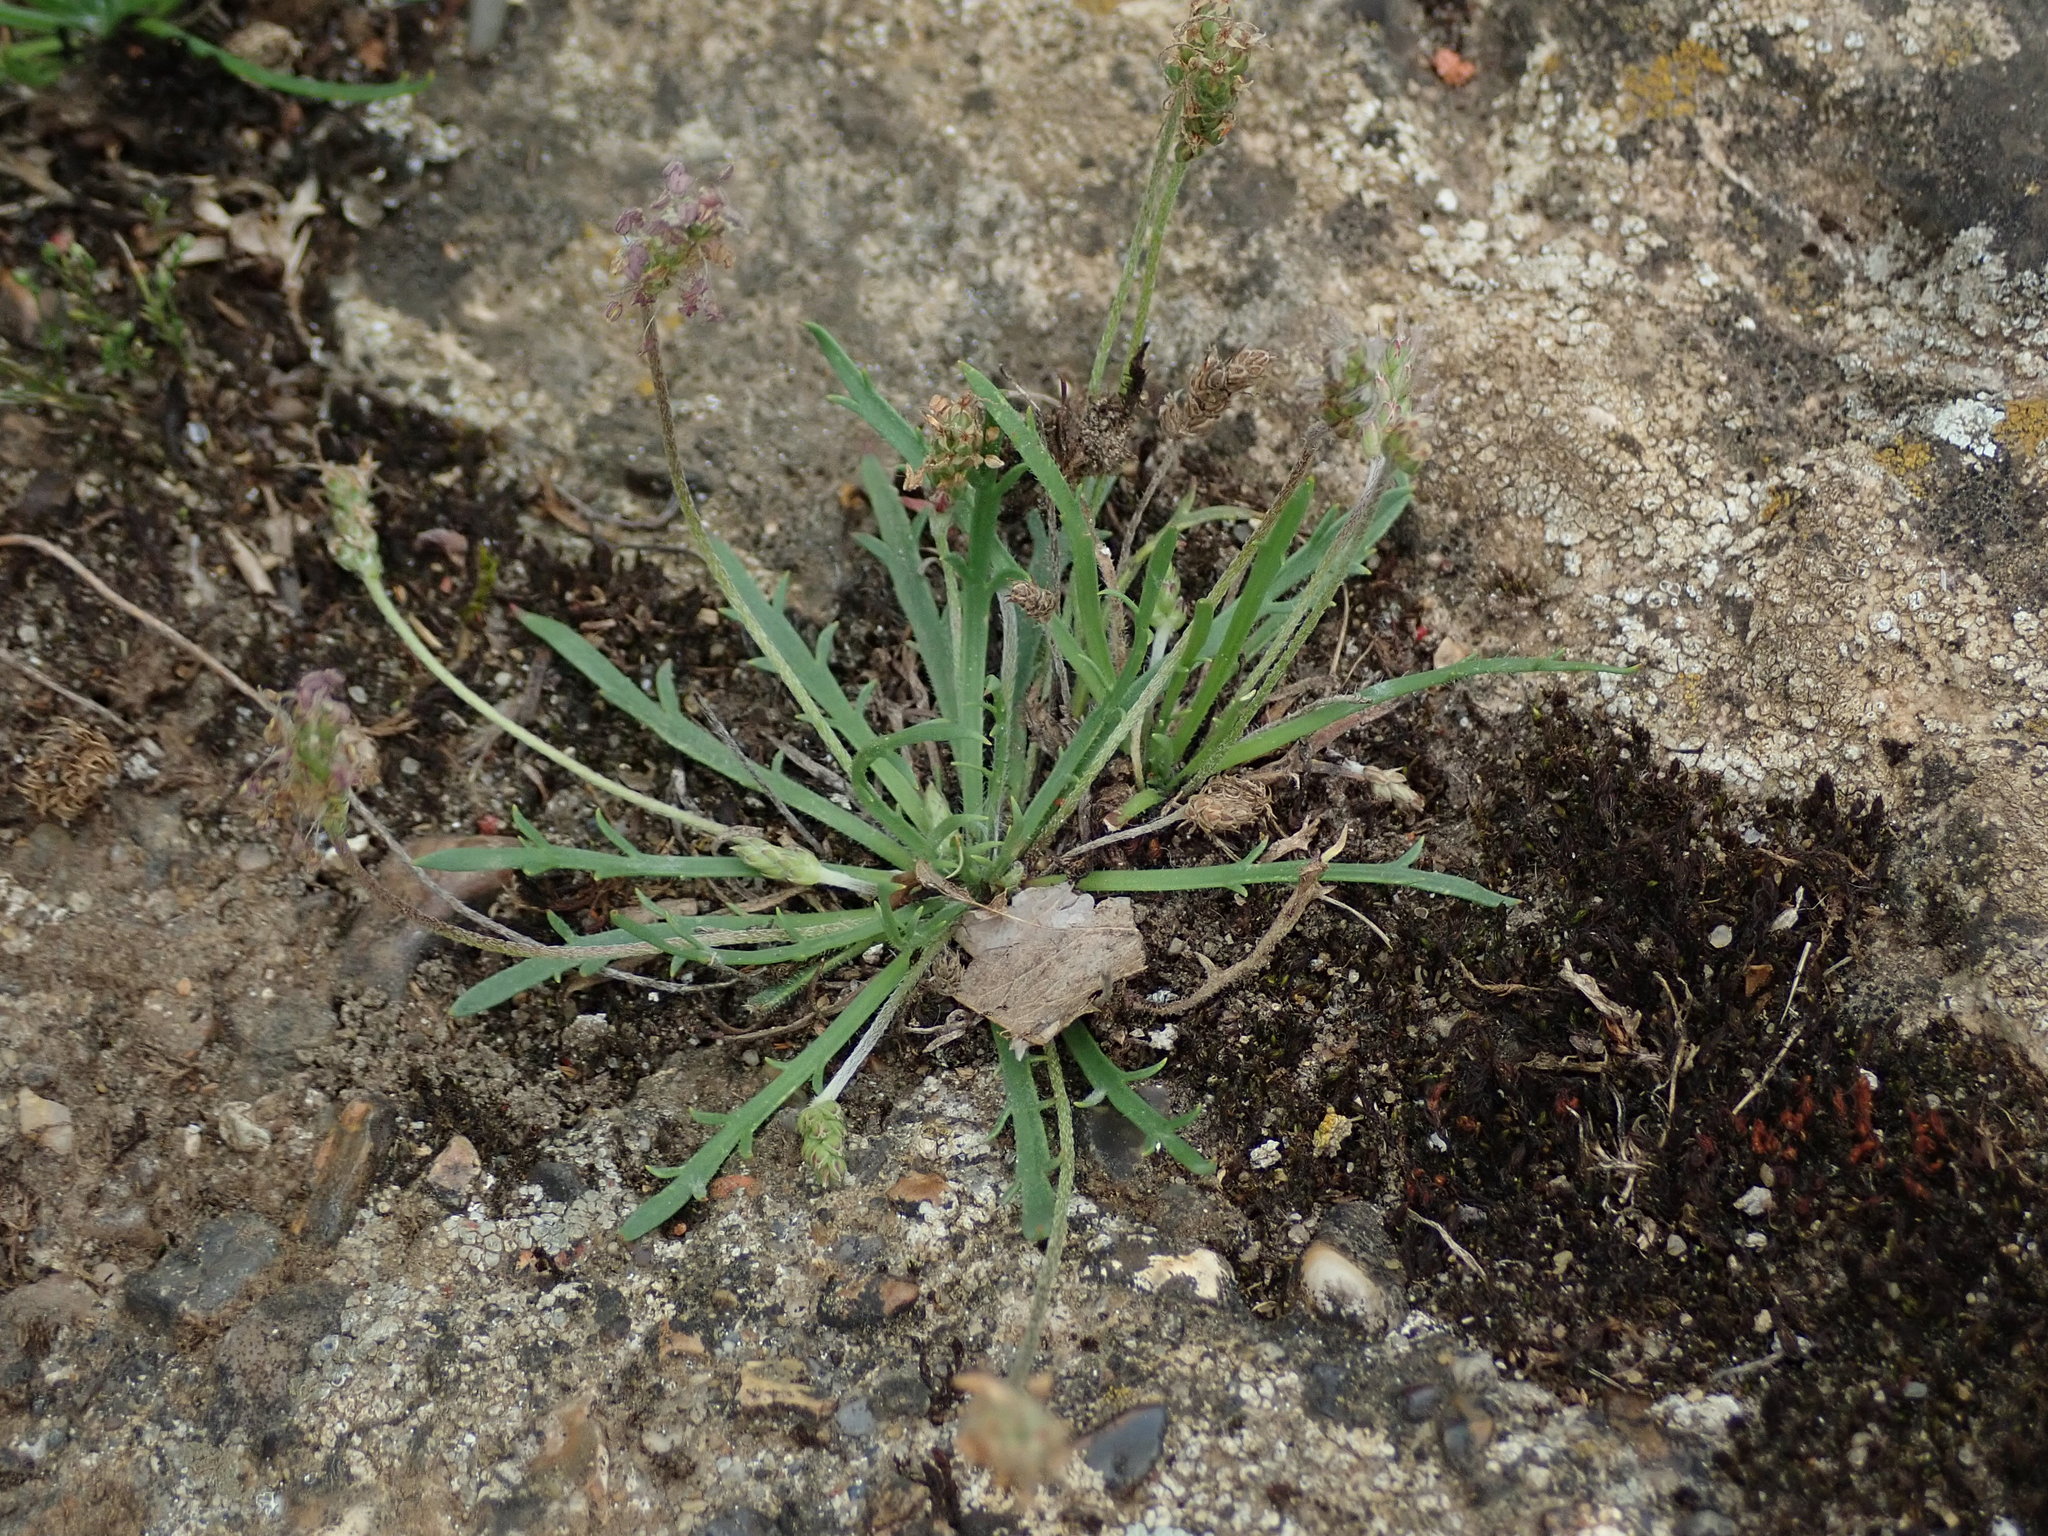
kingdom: Plantae
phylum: Tracheophyta
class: Magnoliopsida
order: Lamiales
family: Plantaginaceae
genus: Plantago
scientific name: Plantago coronopus
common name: Buck's-horn plantain
